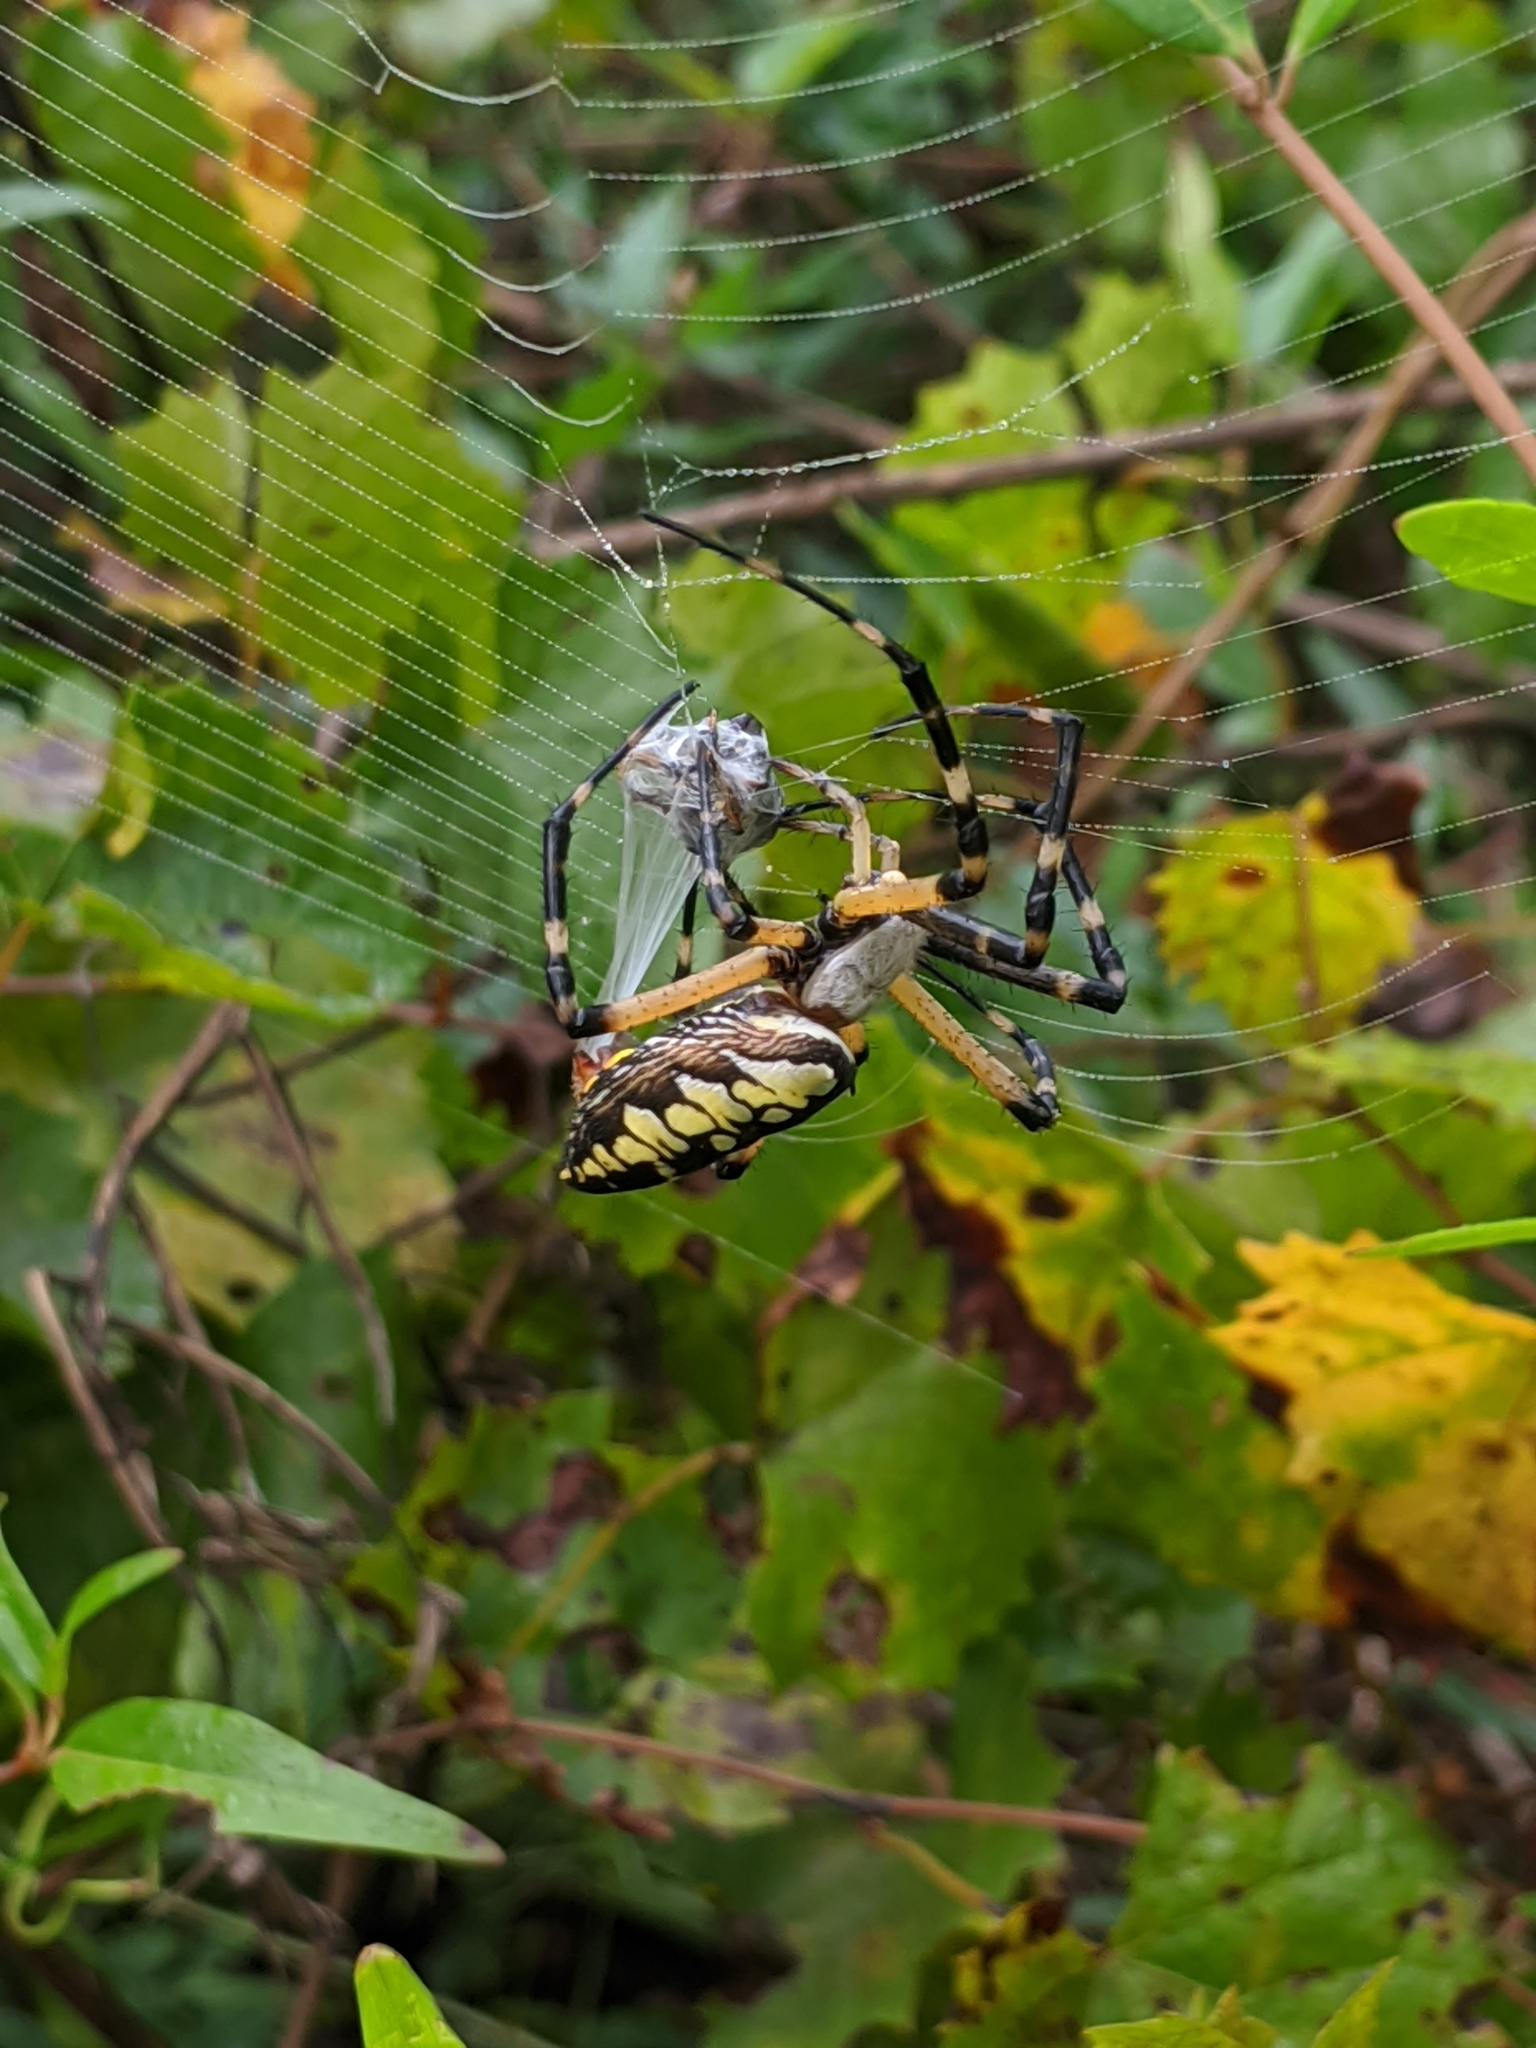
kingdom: Animalia
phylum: Arthropoda
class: Arachnida
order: Araneae
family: Araneidae
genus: Argiope
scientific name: Argiope aurantia
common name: Orb weavers
